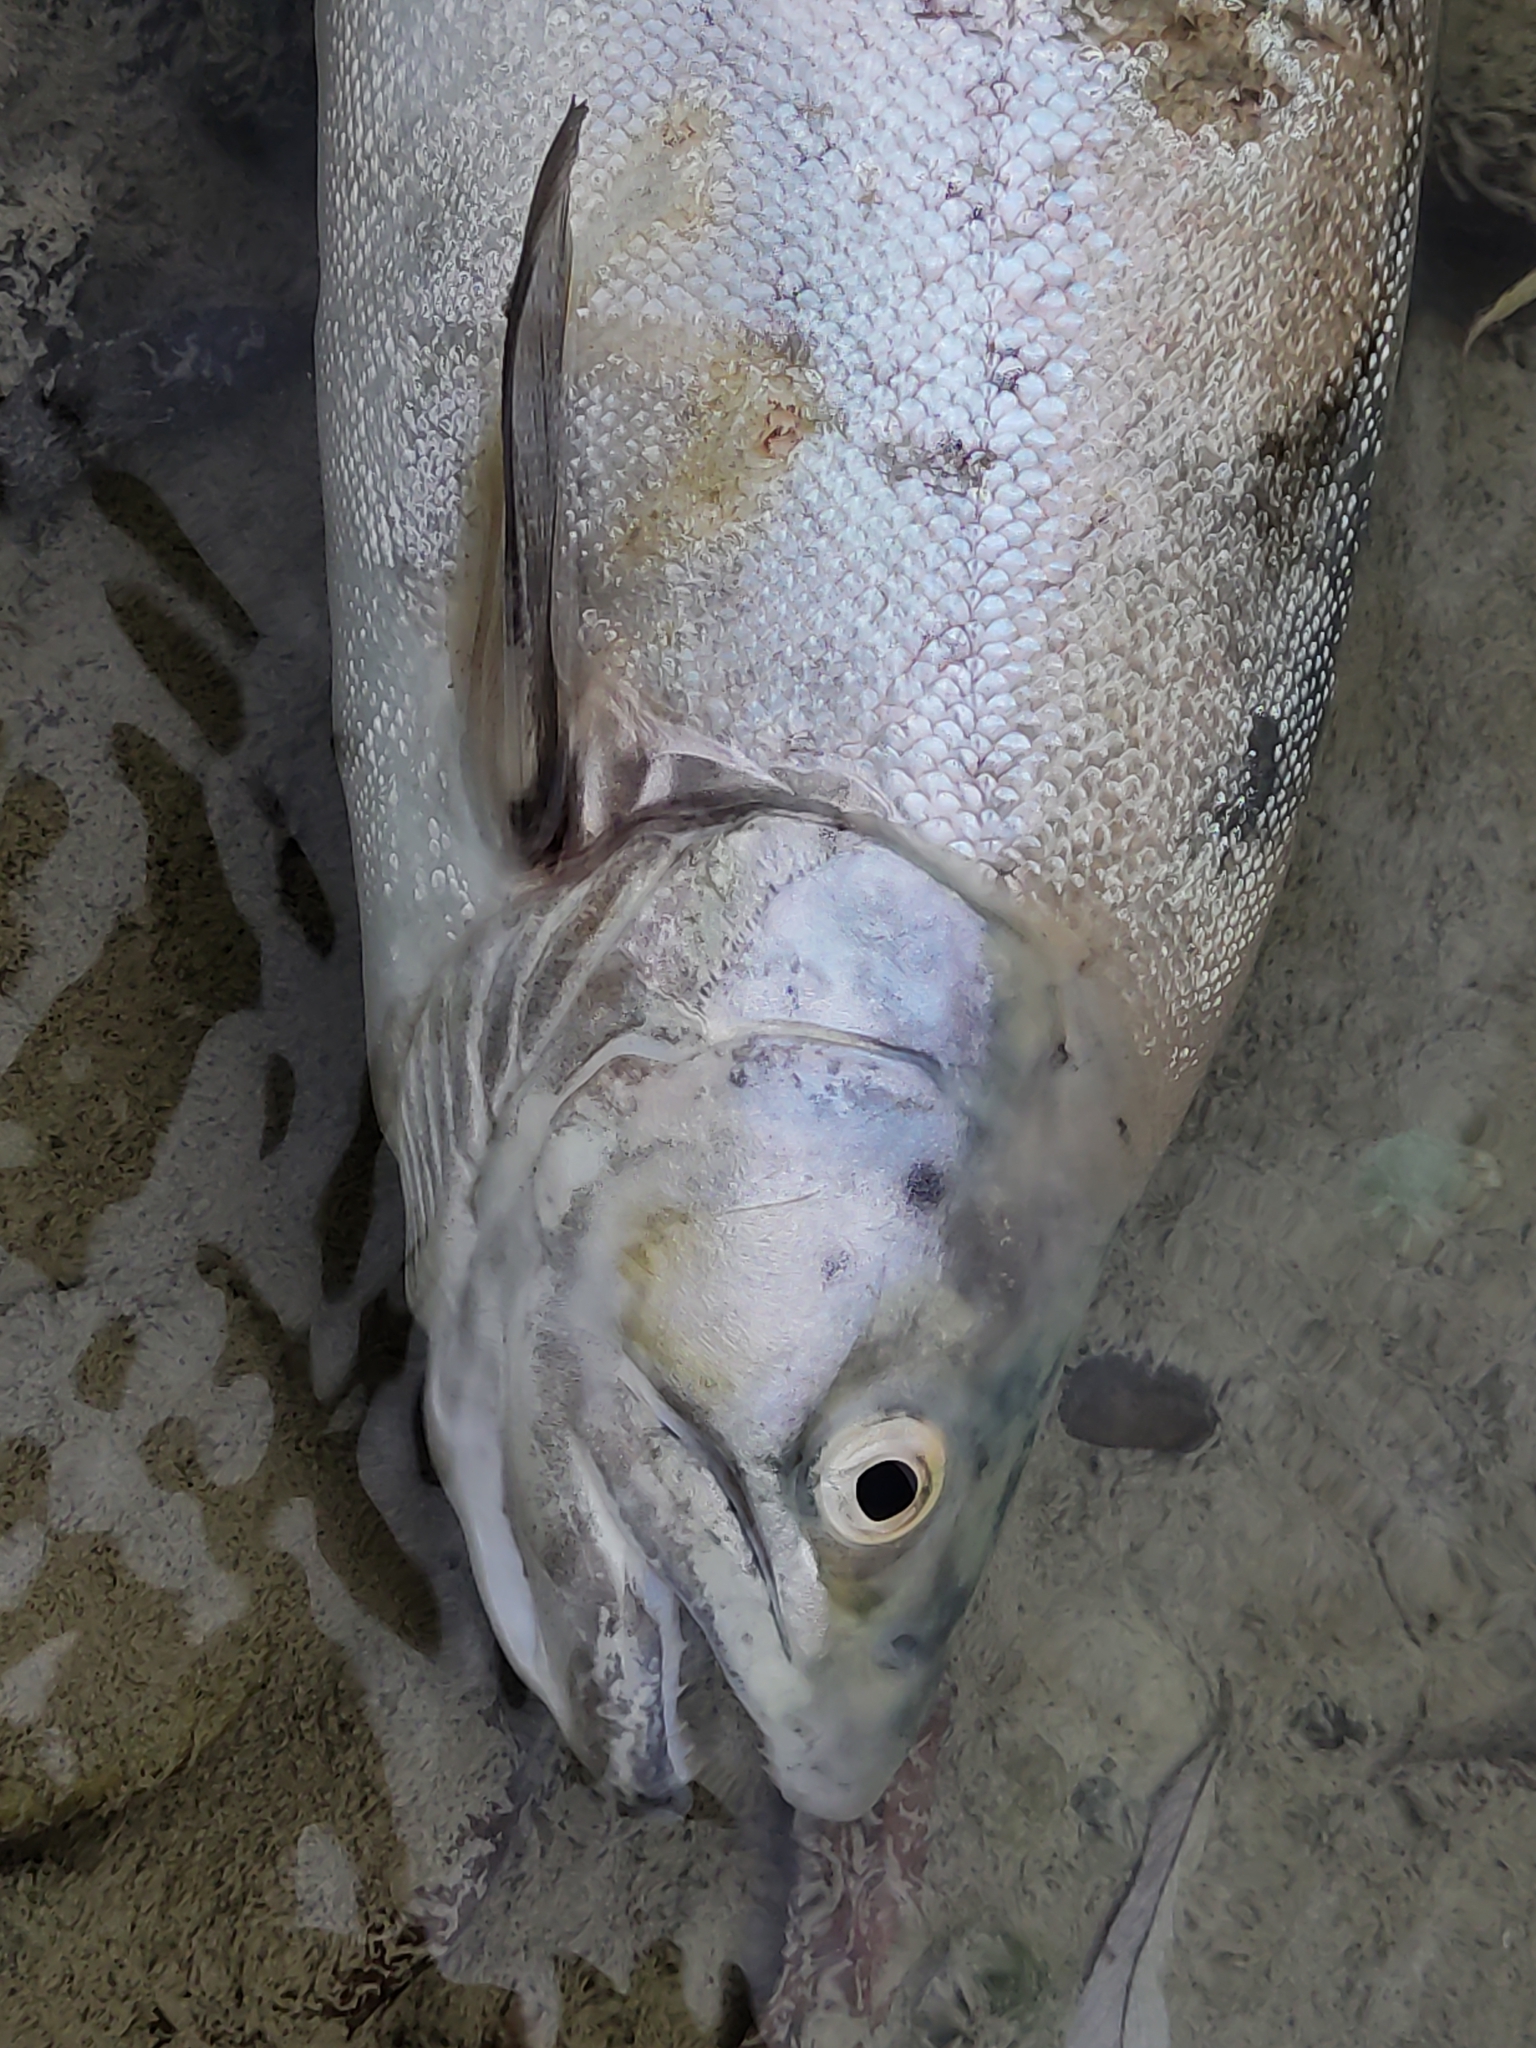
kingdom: Animalia
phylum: Chordata
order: Salmoniformes
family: Salmonidae
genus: Salmo
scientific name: Salmo trutta
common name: Brown trout
